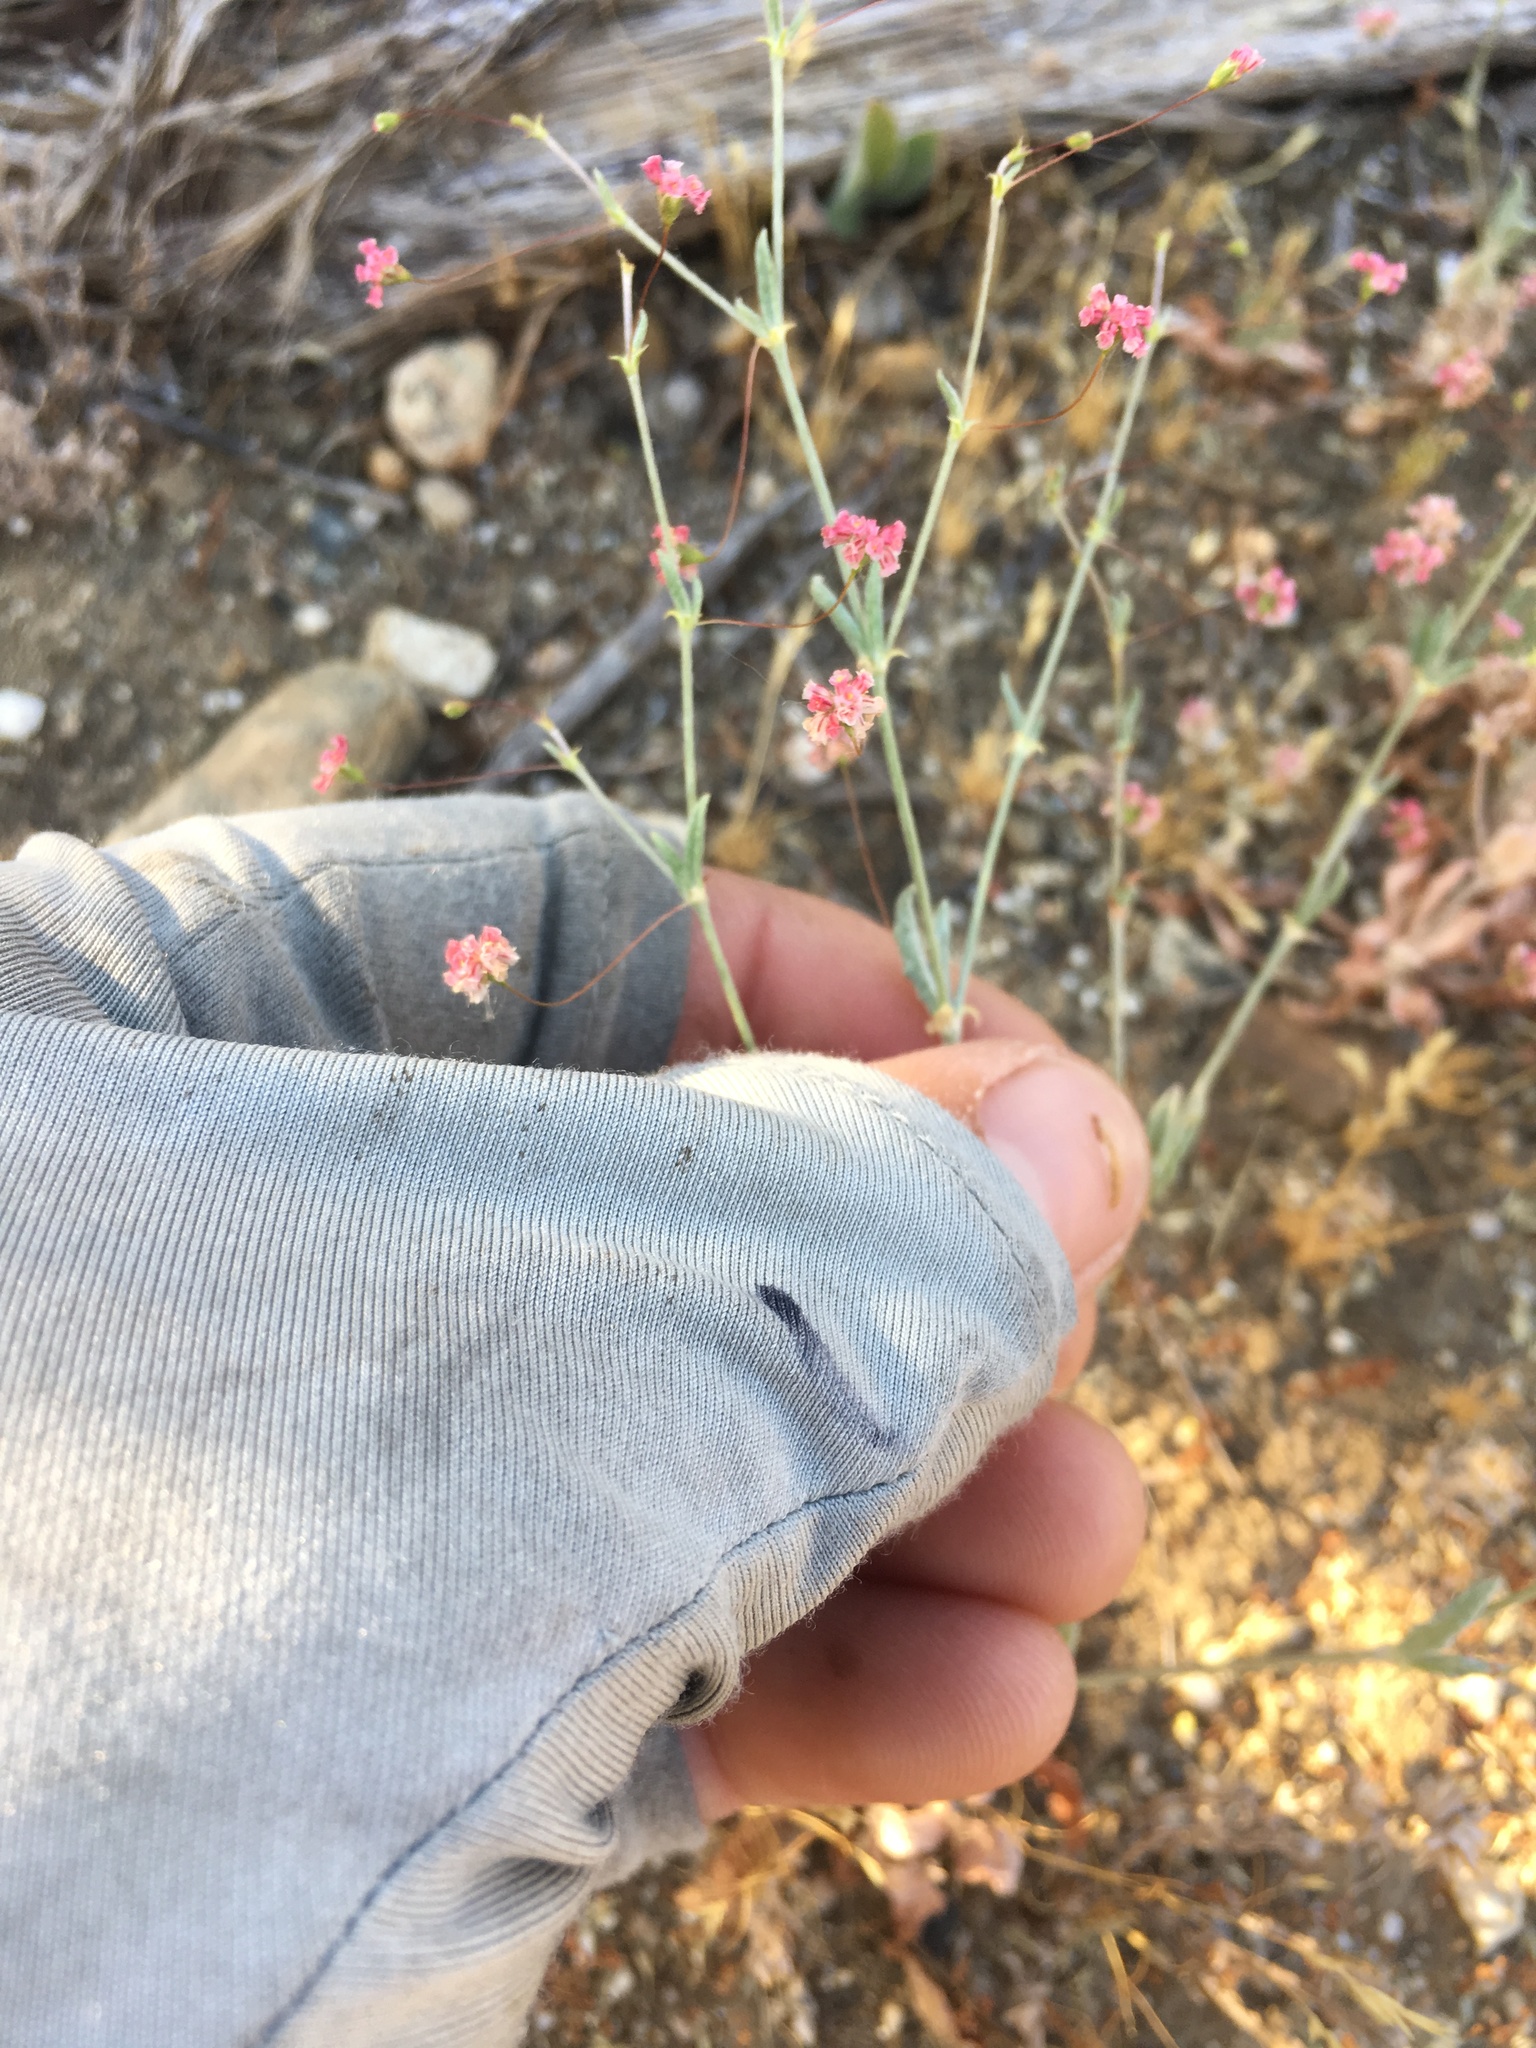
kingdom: Plantae
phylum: Tracheophyta
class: Magnoliopsida
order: Caryophyllales
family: Polygonaceae
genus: Eriogonum
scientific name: Eriogonum gracillimum
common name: Rose-and-white wild buckwheat
